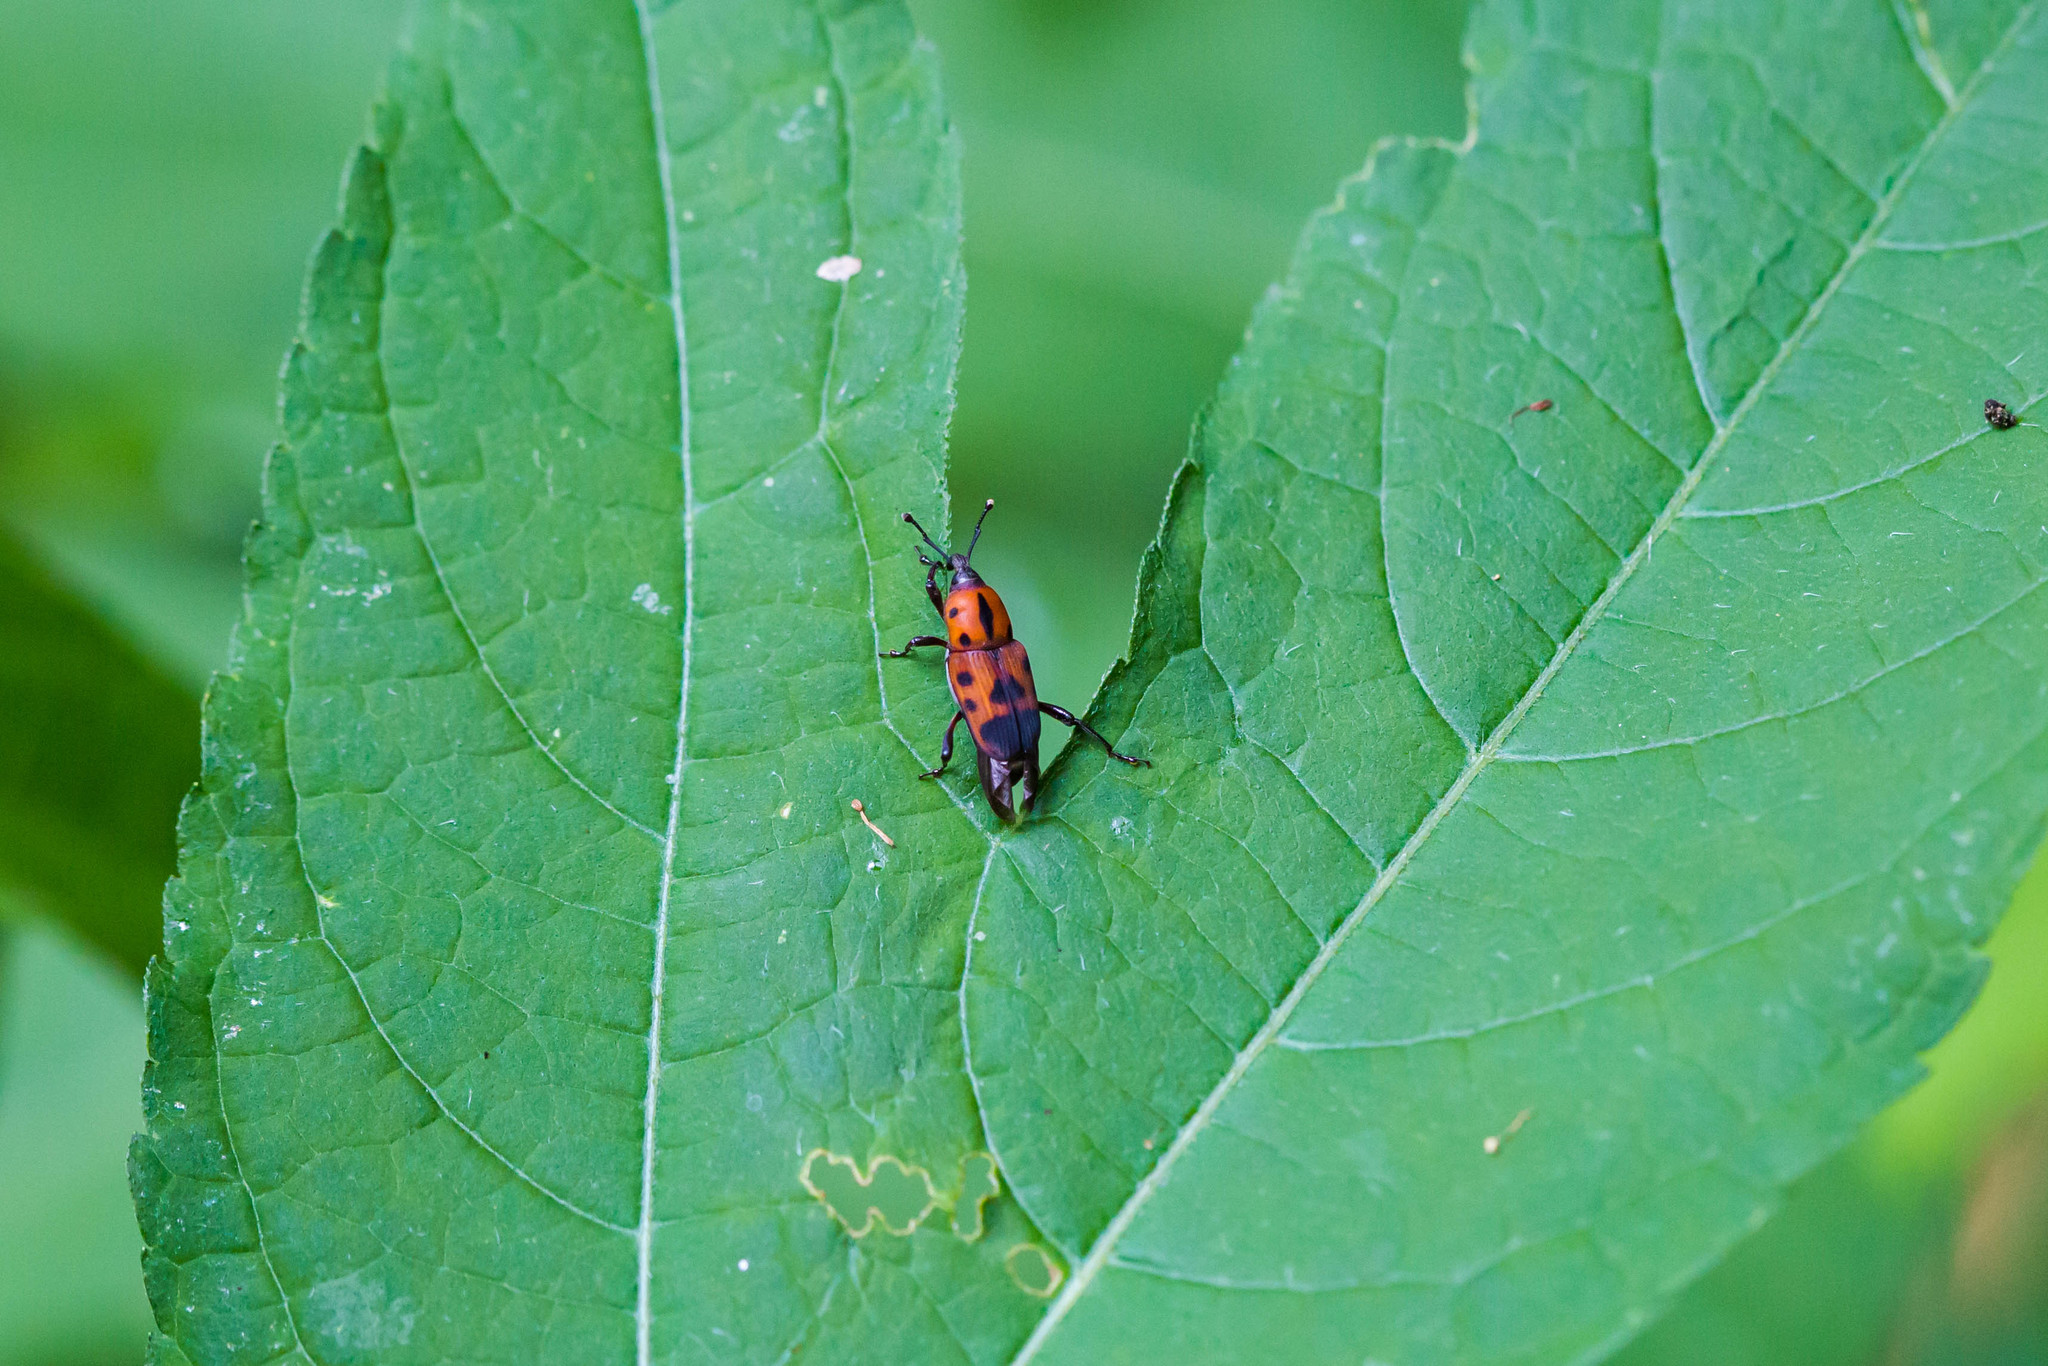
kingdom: Animalia
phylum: Arthropoda
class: Insecta
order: Coleoptera
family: Dryophthoridae
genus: Rhodobaenus
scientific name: Rhodobaenus quinquepunctatus
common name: Cocklebur weevil
